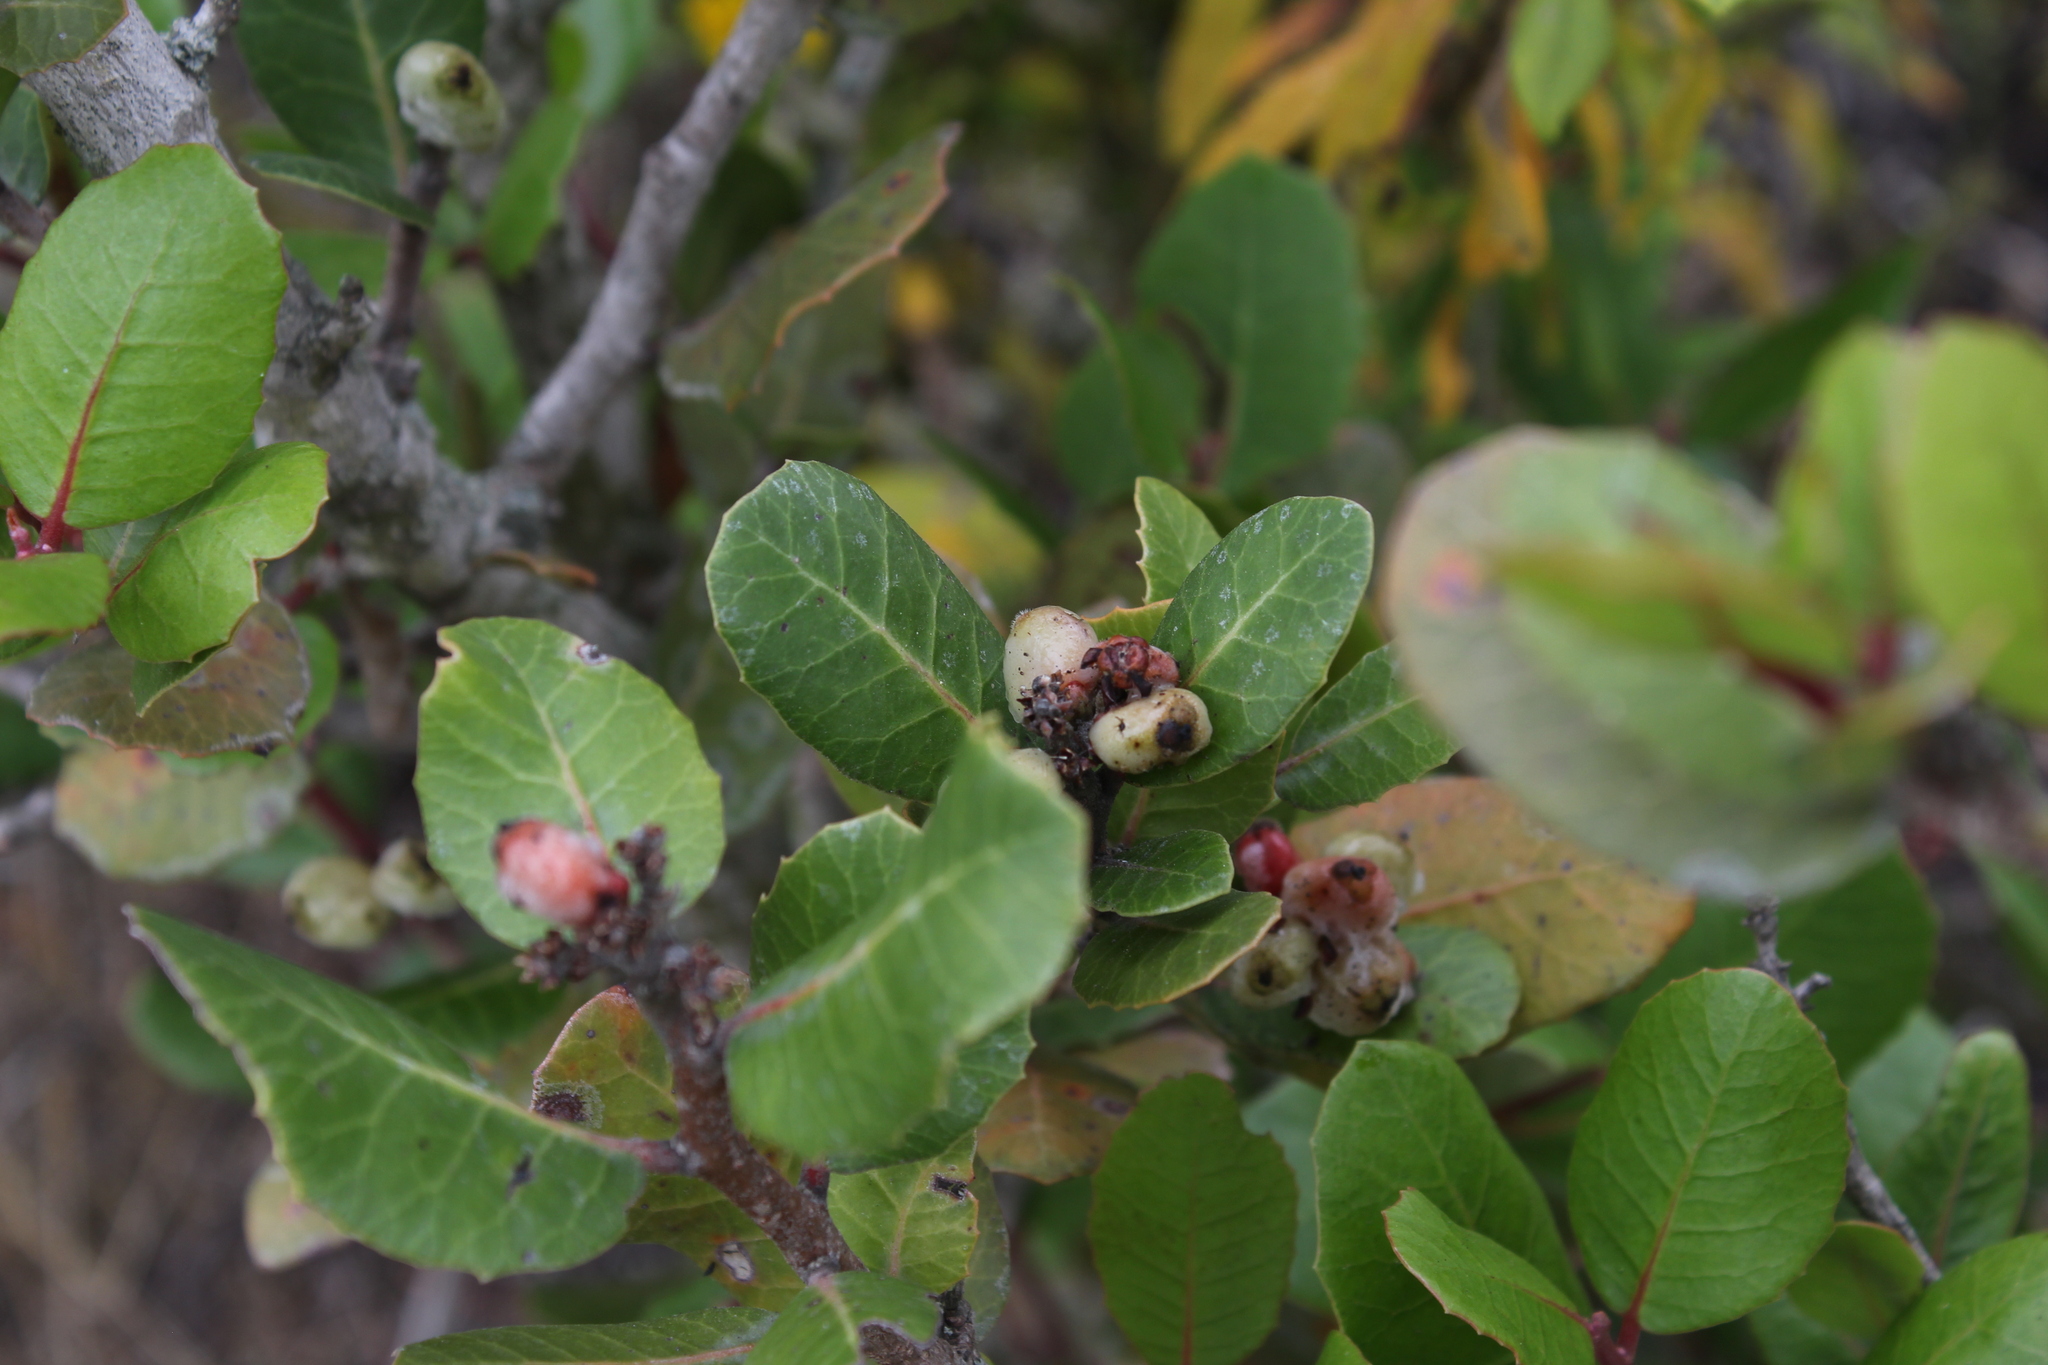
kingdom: Plantae
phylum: Tracheophyta
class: Magnoliopsida
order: Sapindales
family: Anacardiaceae
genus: Rhus
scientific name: Rhus integrifolia
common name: Lemonade sumac
